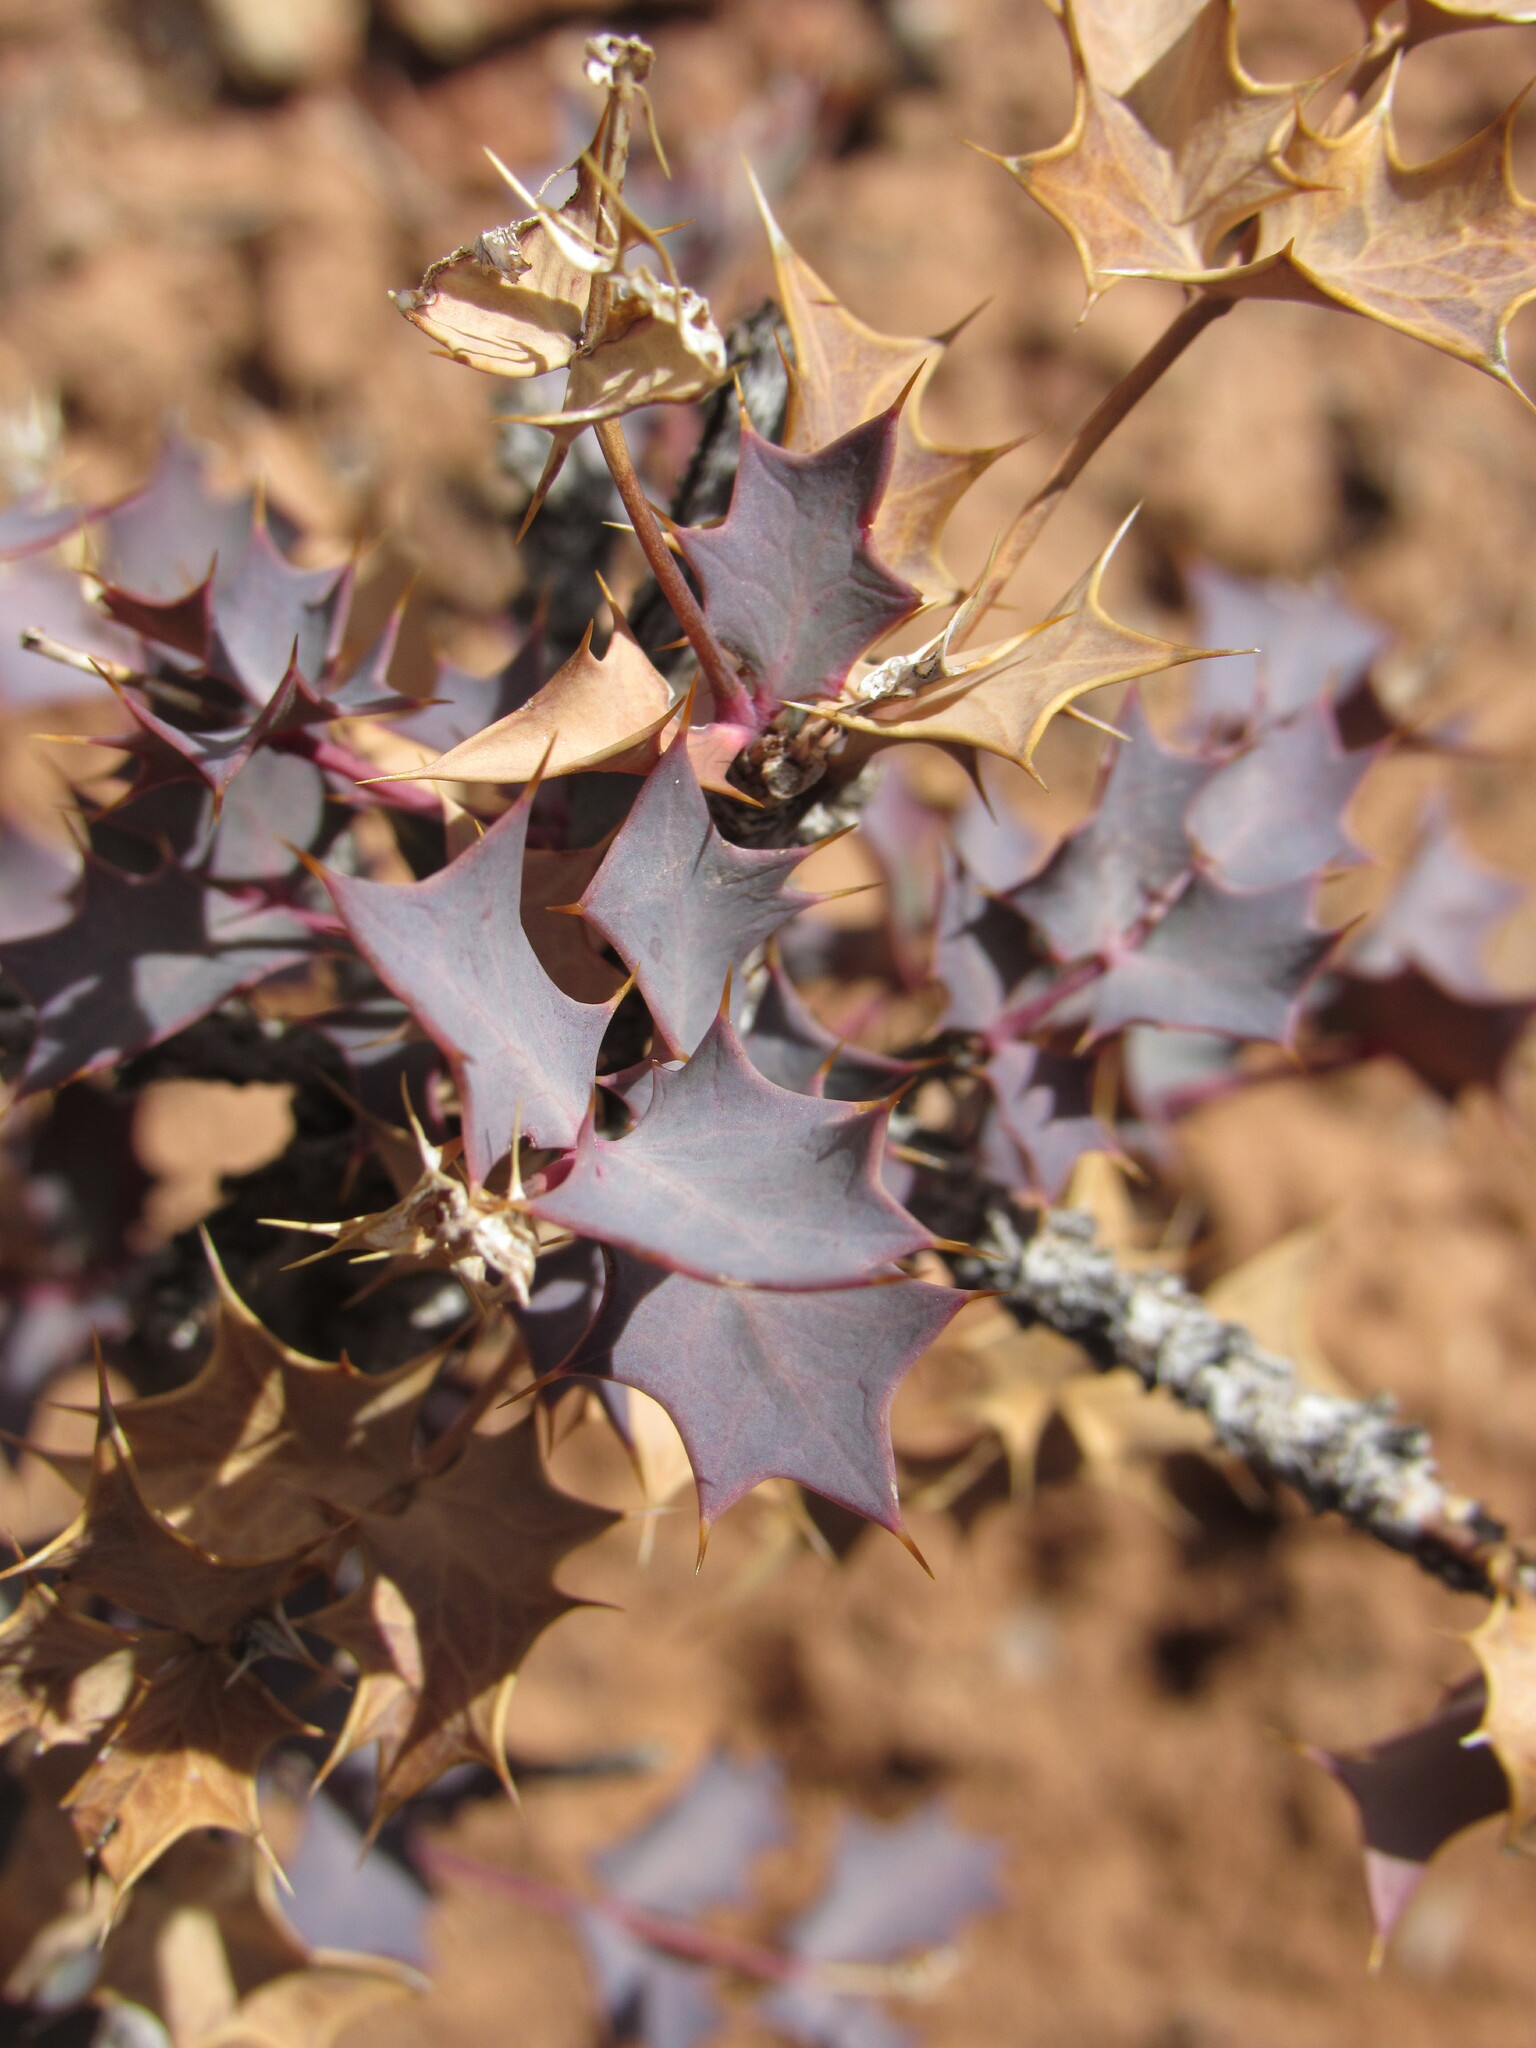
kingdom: Plantae
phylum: Tracheophyta
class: Magnoliopsida
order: Ranunculales
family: Berberidaceae
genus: Alloberberis
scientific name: Alloberberis fremontii
